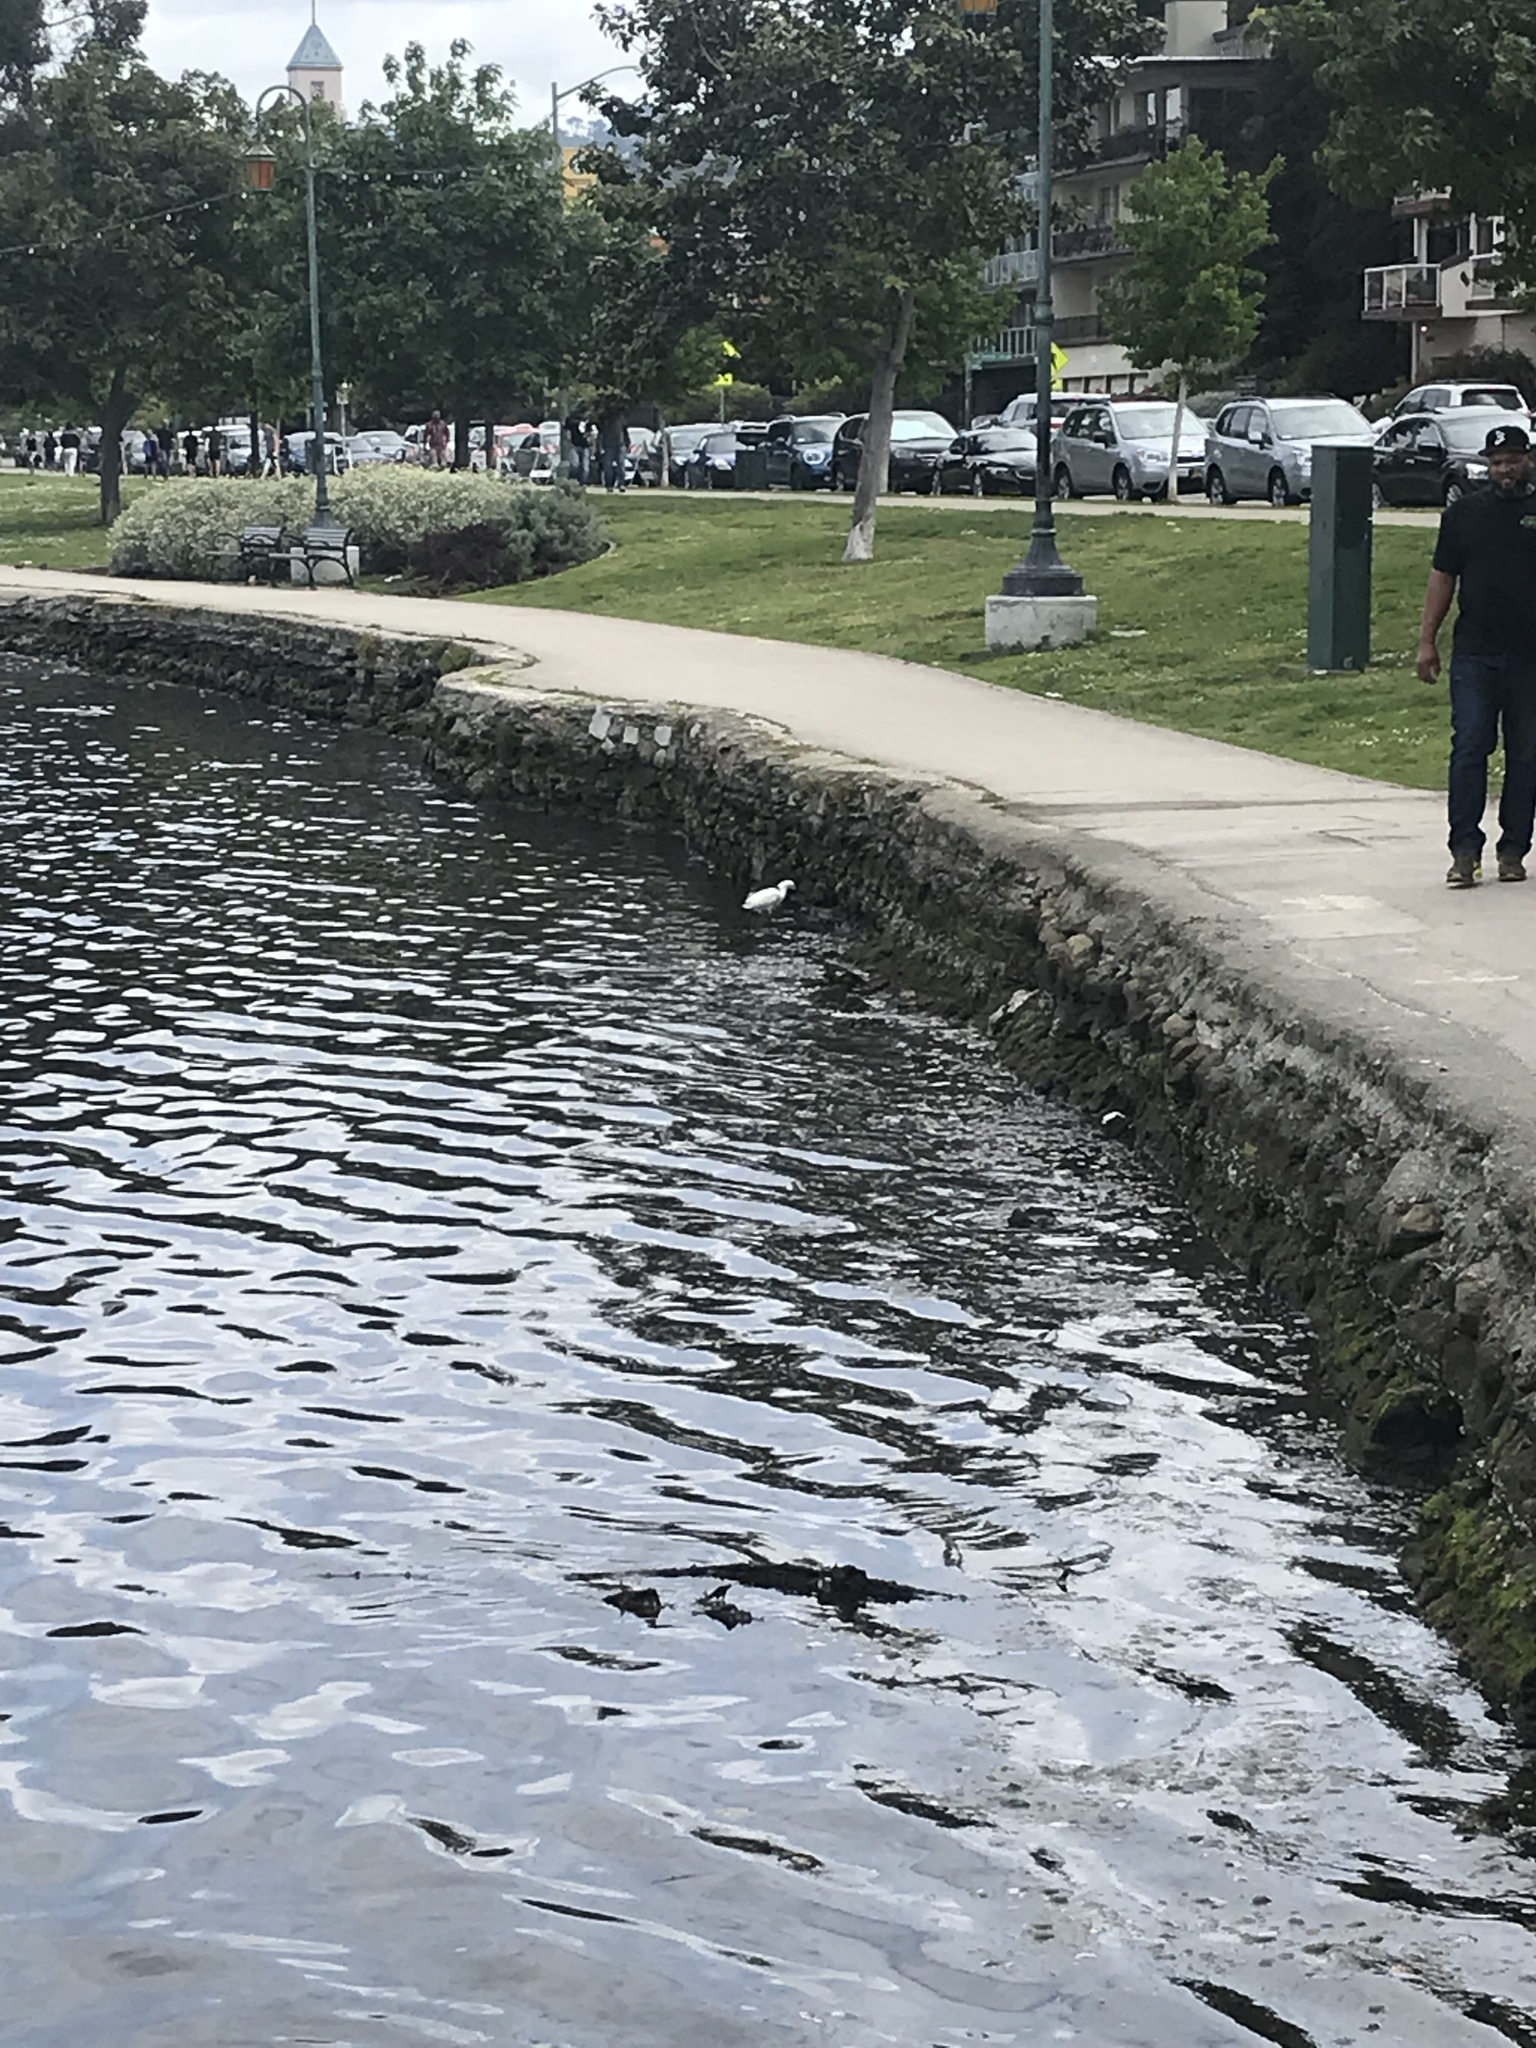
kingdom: Animalia
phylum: Chordata
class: Aves
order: Pelecaniformes
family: Ardeidae
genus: Egretta
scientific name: Egretta thula
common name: Snowy egret
